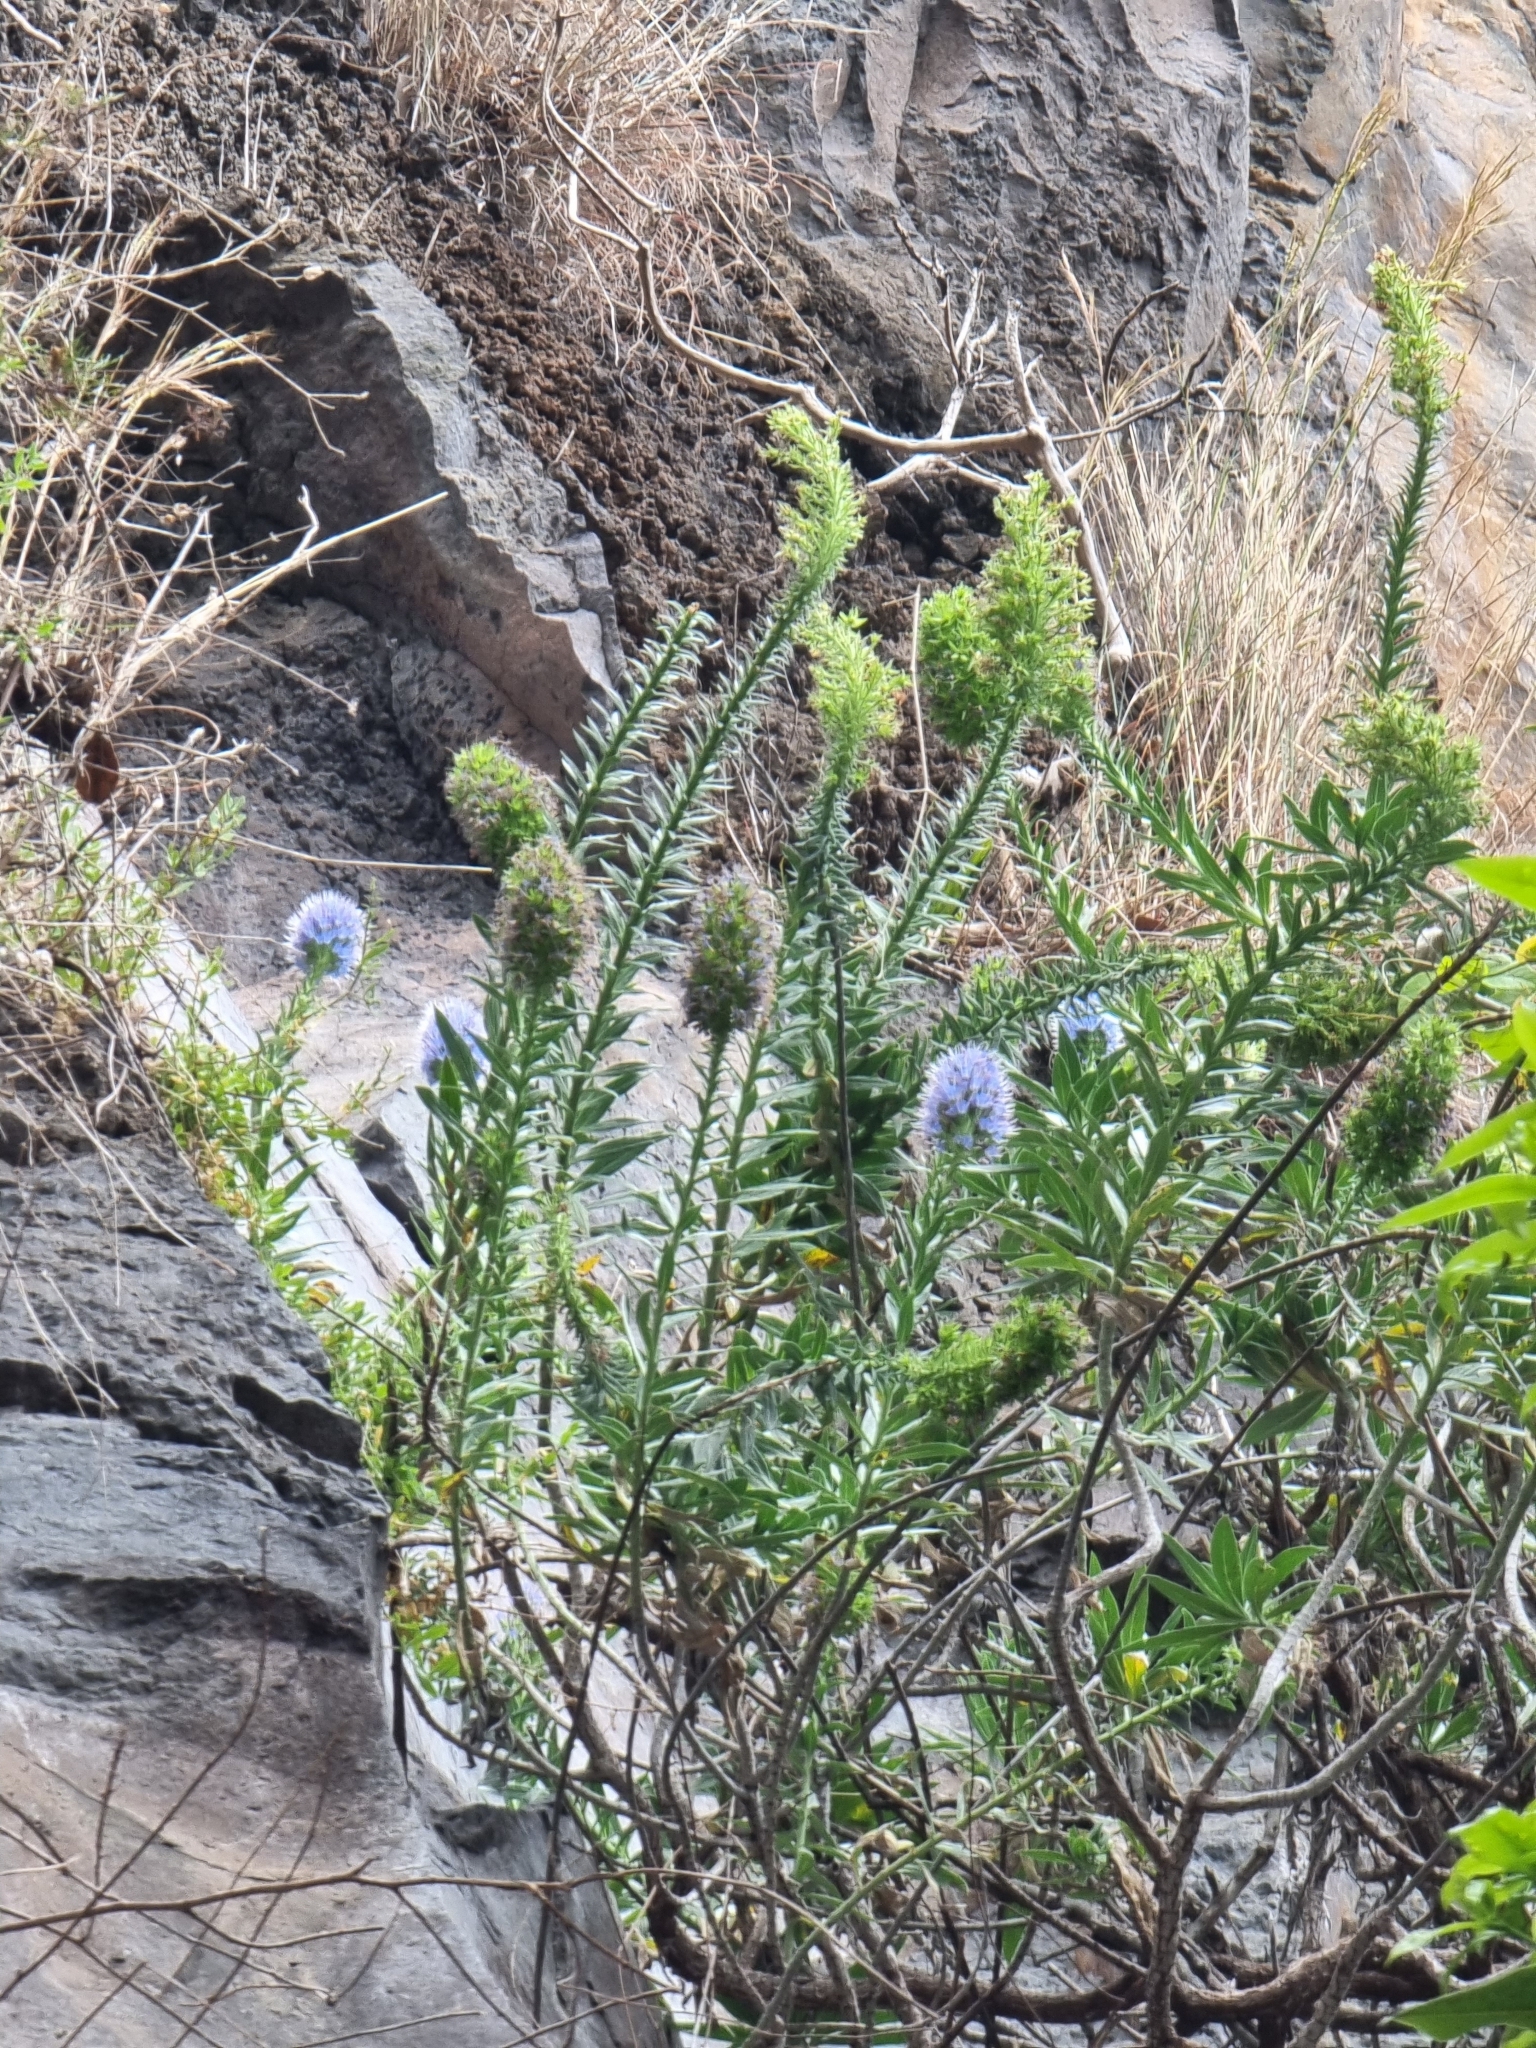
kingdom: Plantae
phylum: Tracheophyta
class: Magnoliopsida
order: Boraginales
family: Boraginaceae
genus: Echium
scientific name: Echium nervosum
